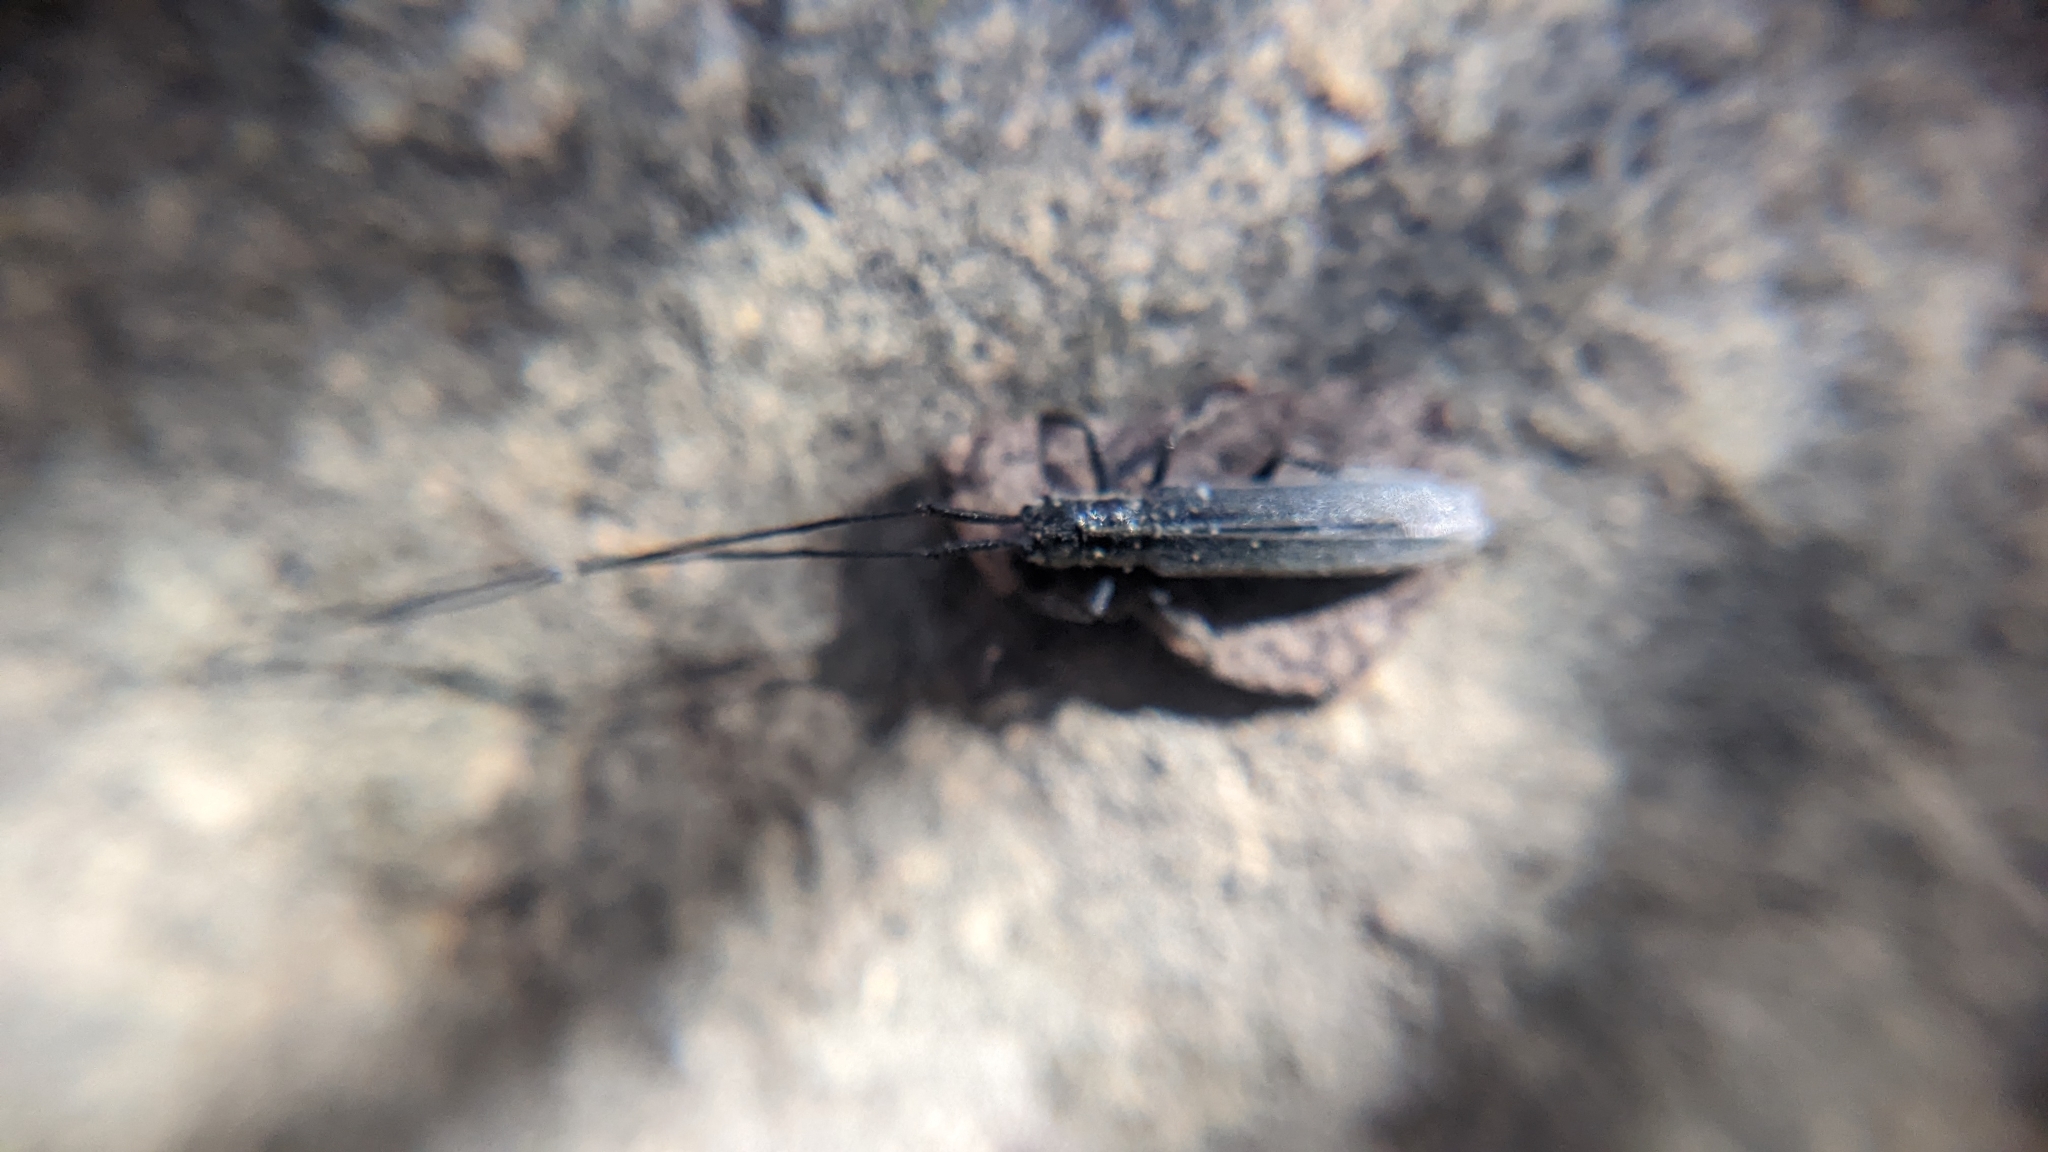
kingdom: Animalia
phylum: Arthropoda
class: Insecta
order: Coleoptera
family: Cerambycidae
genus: Calamobius
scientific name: Calamobius filum
